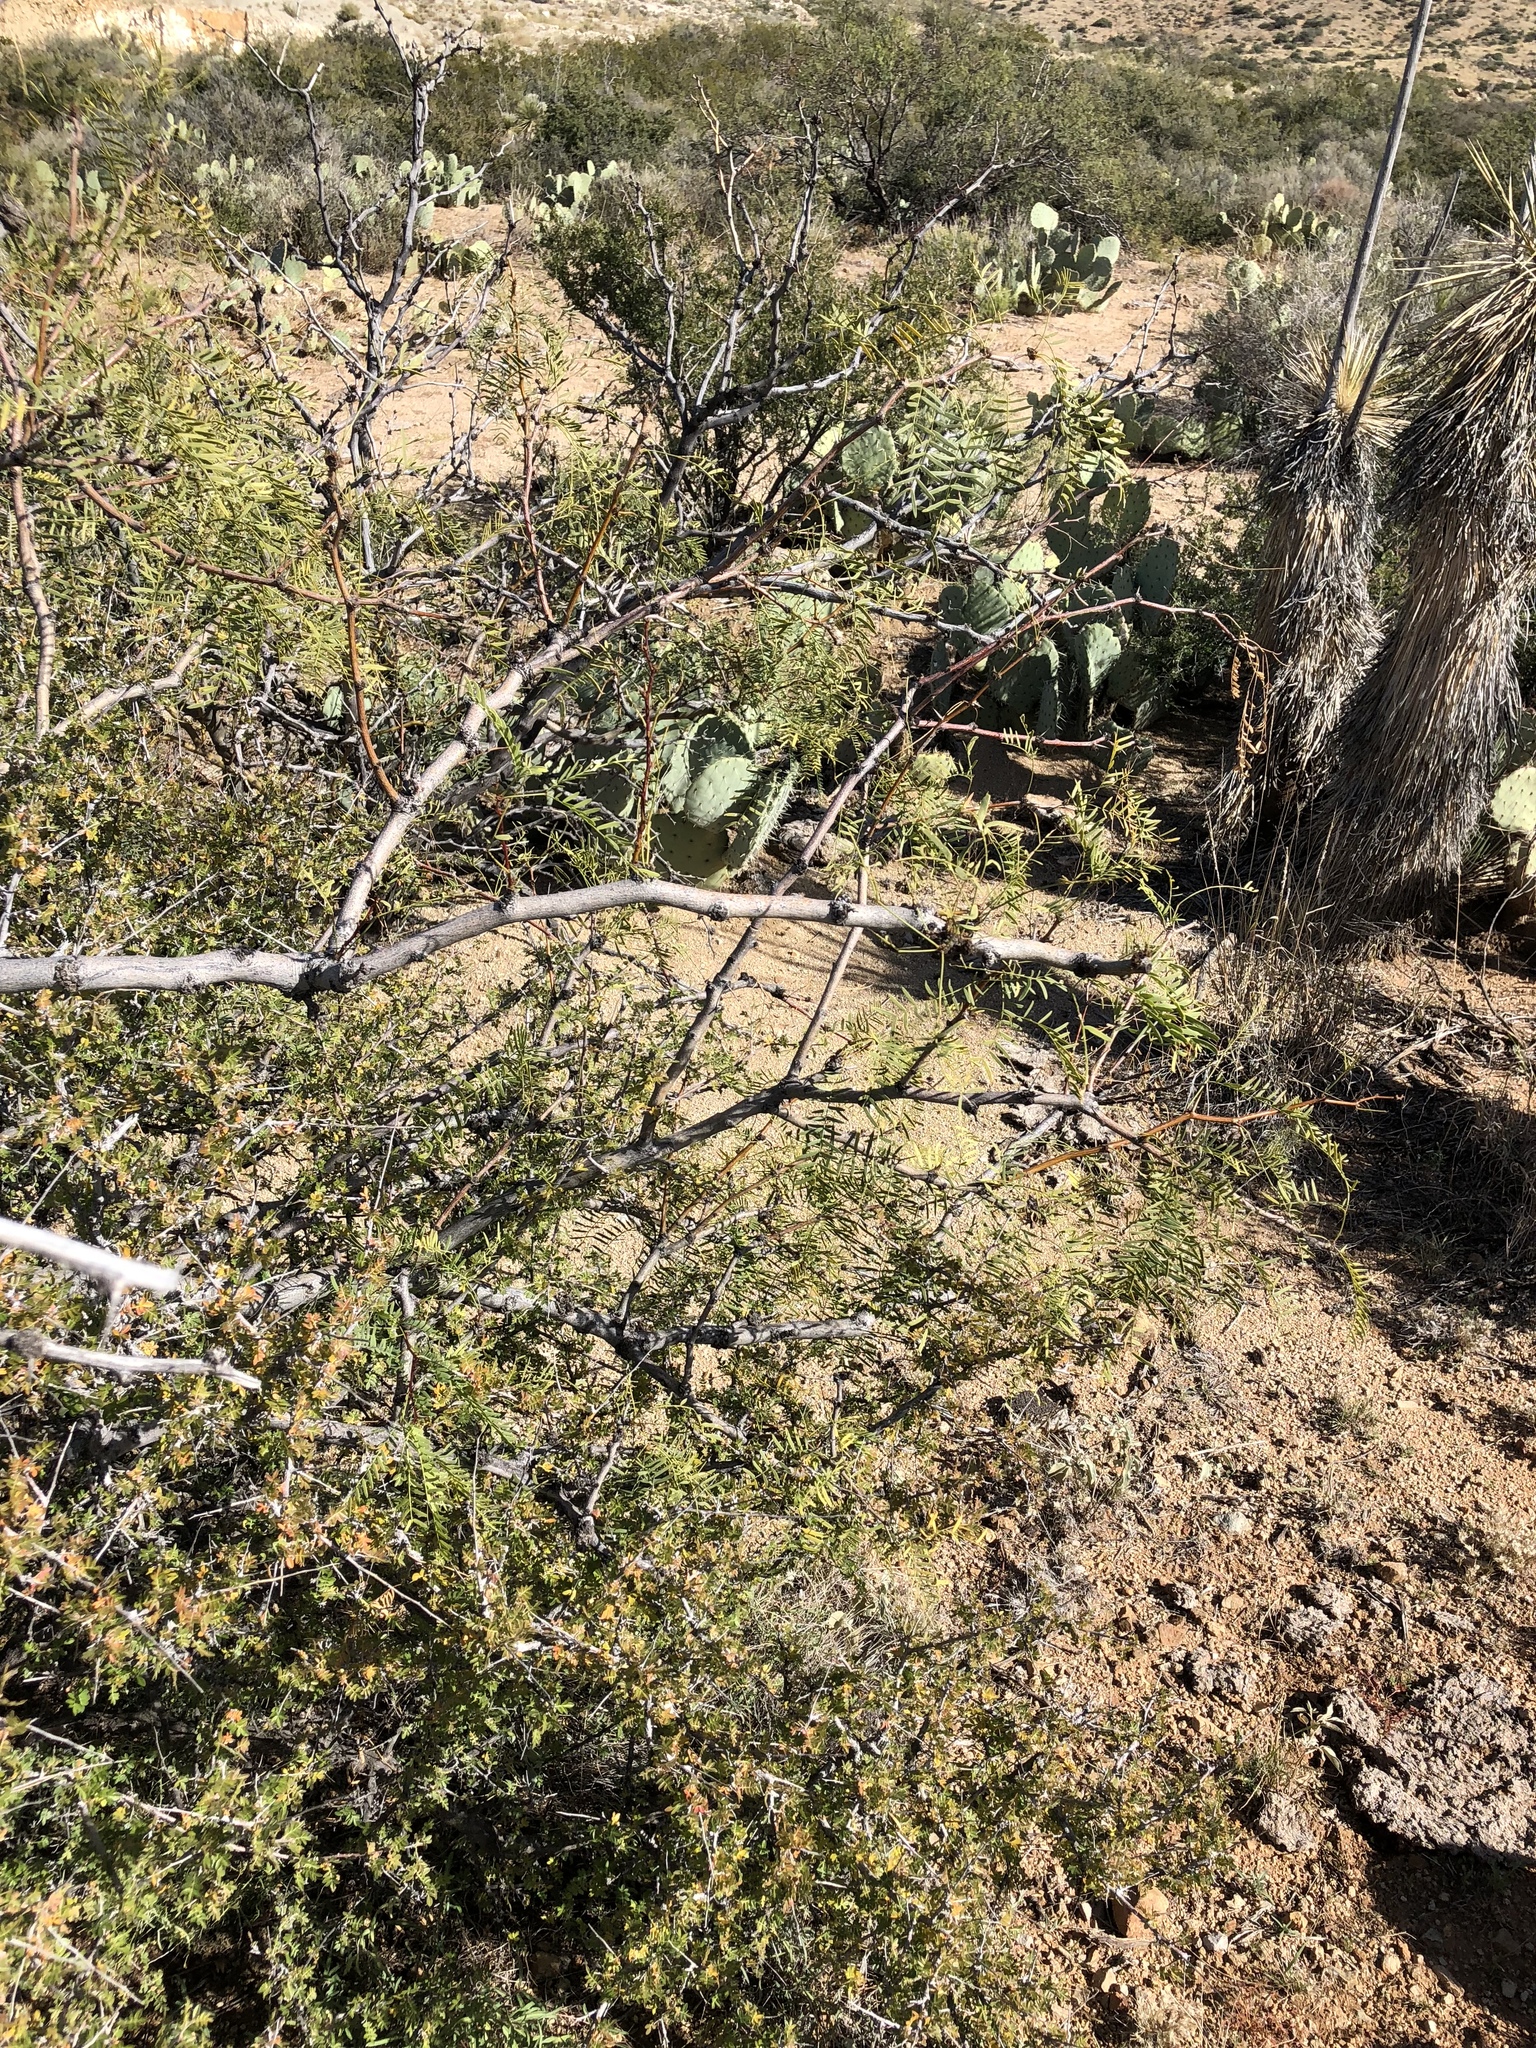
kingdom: Plantae
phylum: Tracheophyta
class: Magnoliopsida
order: Fabales
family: Fabaceae
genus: Prosopis
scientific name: Prosopis glandulosa
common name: Honey mesquite
